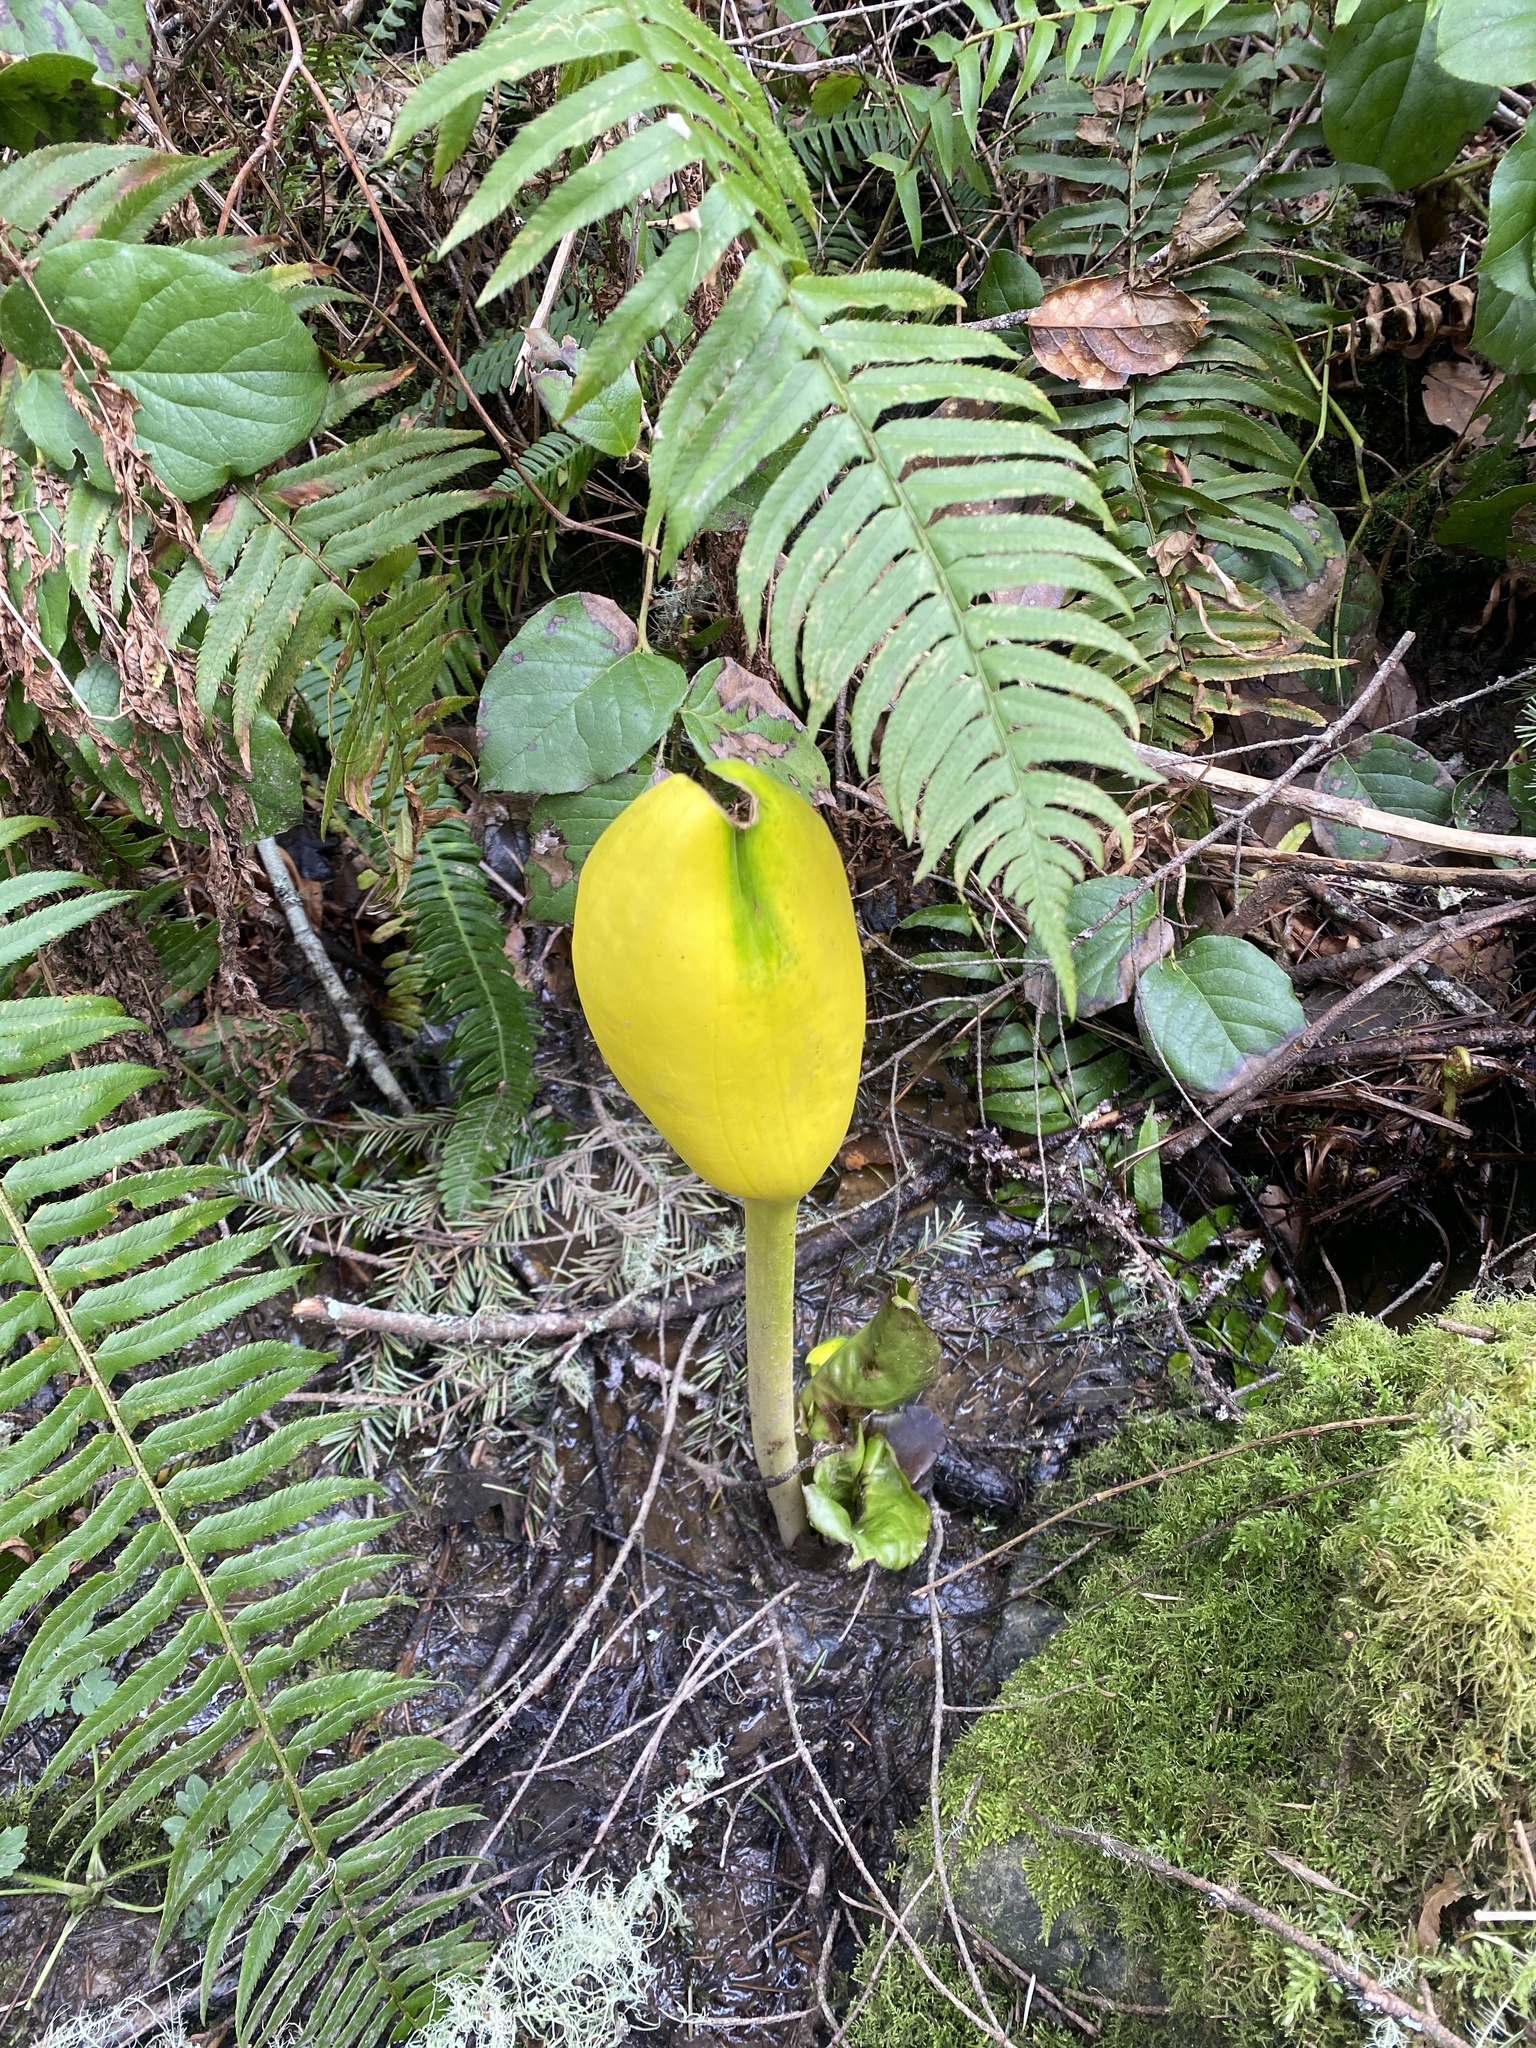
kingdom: Plantae
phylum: Tracheophyta
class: Liliopsida
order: Alismatales
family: Araceae
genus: Lysichiton
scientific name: Lysichiton americanus
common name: American skunk cabbage
